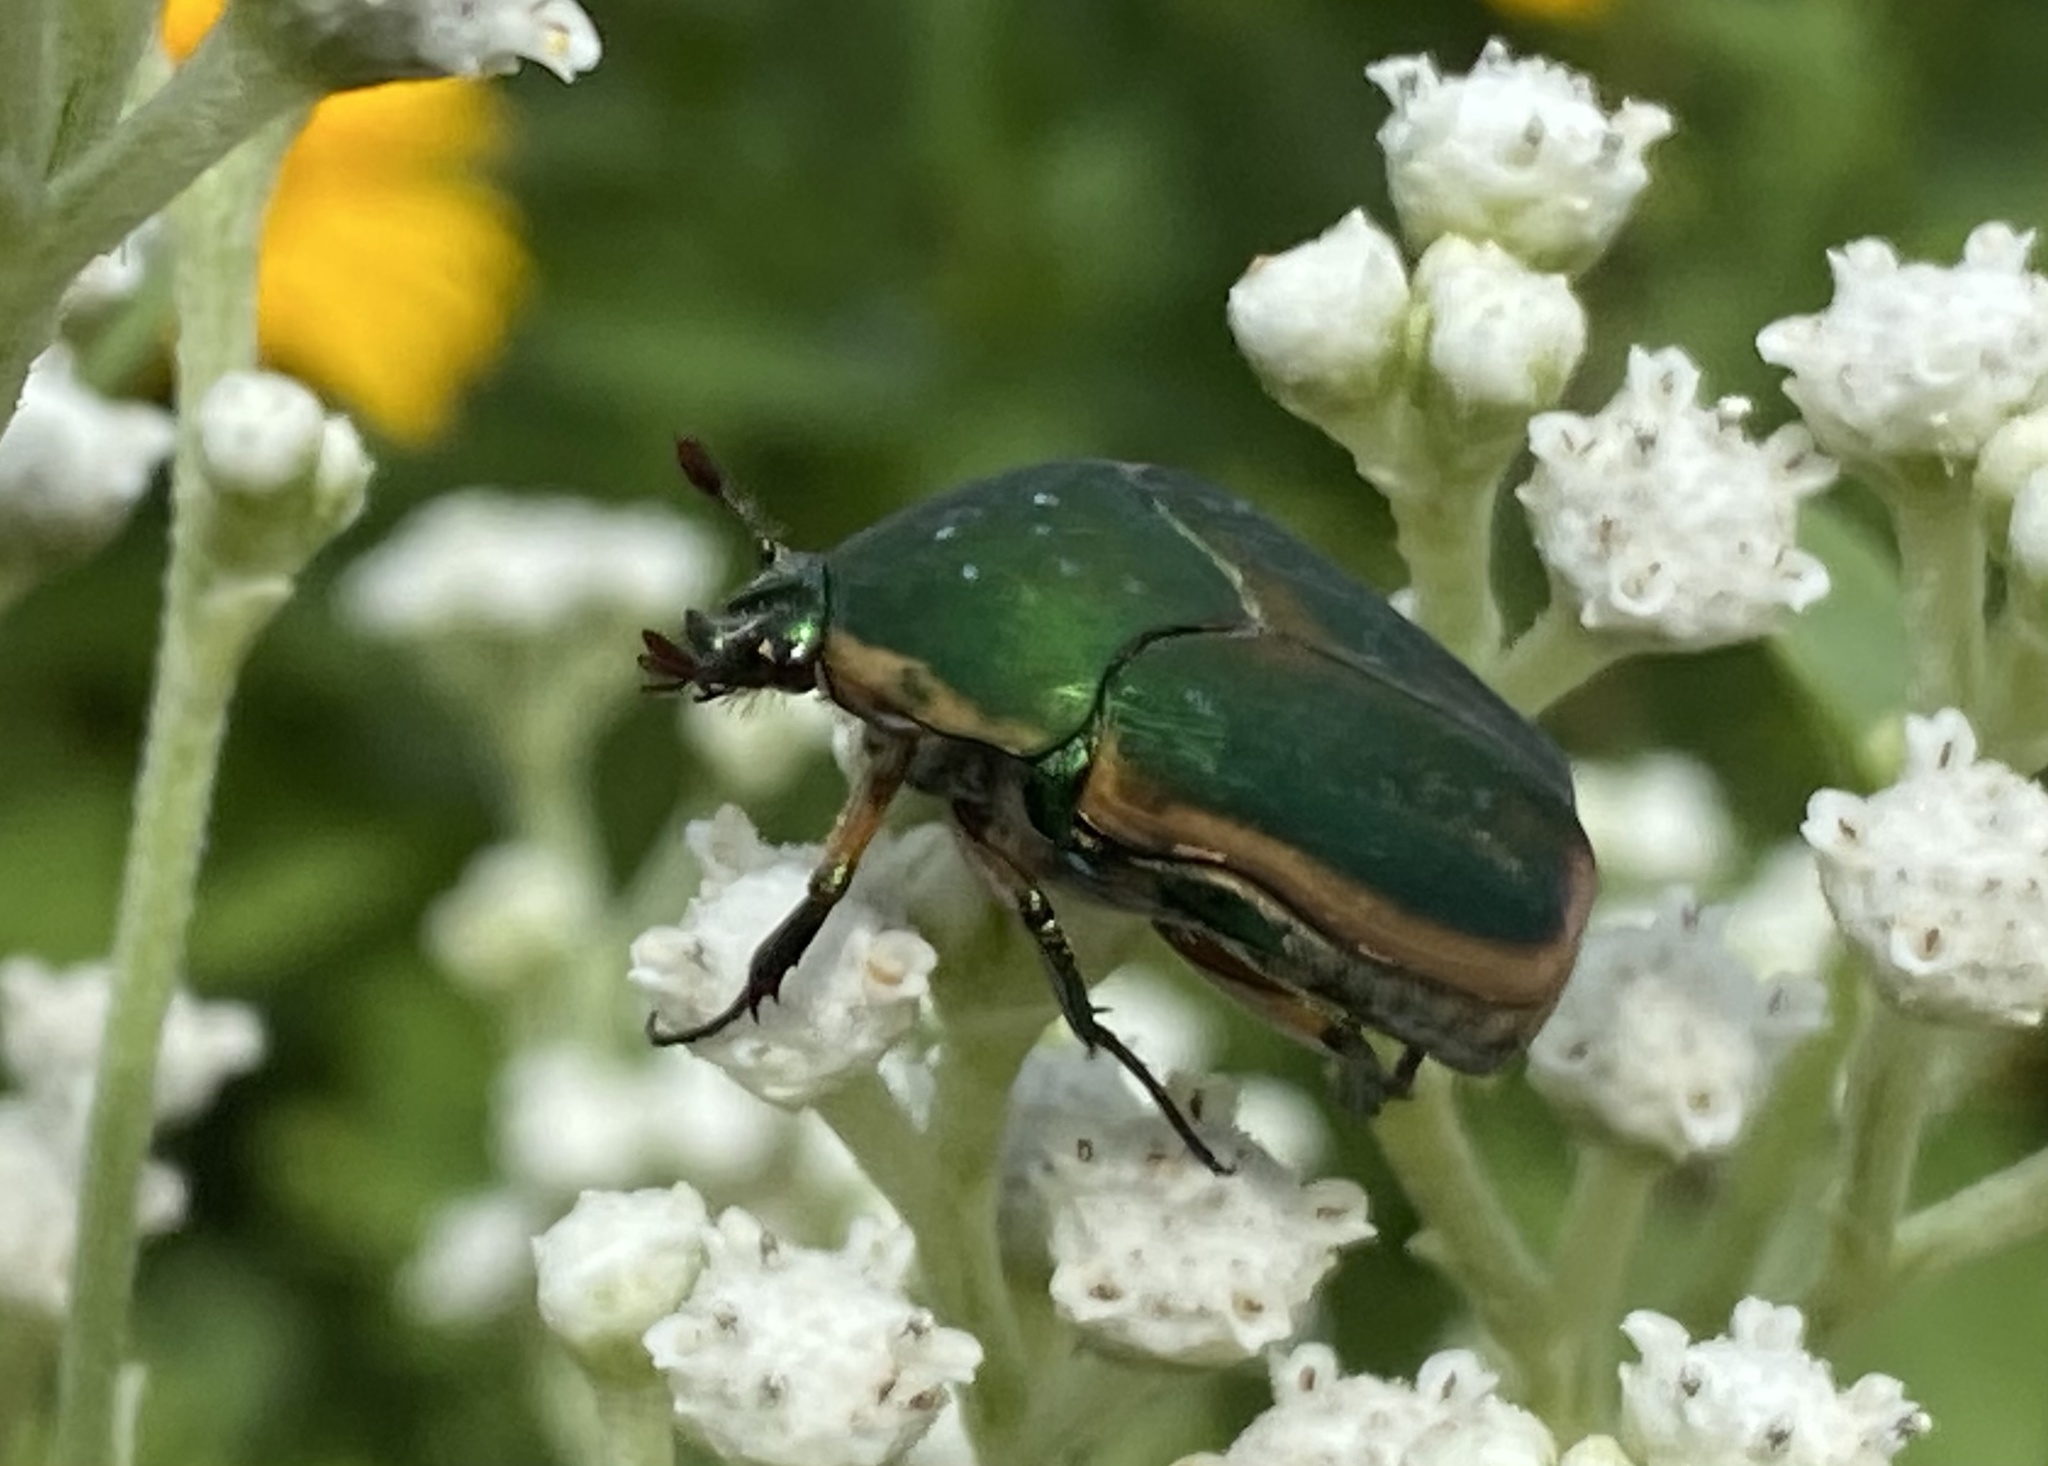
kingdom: Animalia
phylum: Arthropoda
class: Insecta
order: Coleoptera
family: Scarabaeidae
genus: Cotinis
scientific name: Cotinis nitida
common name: Common green june beetle
